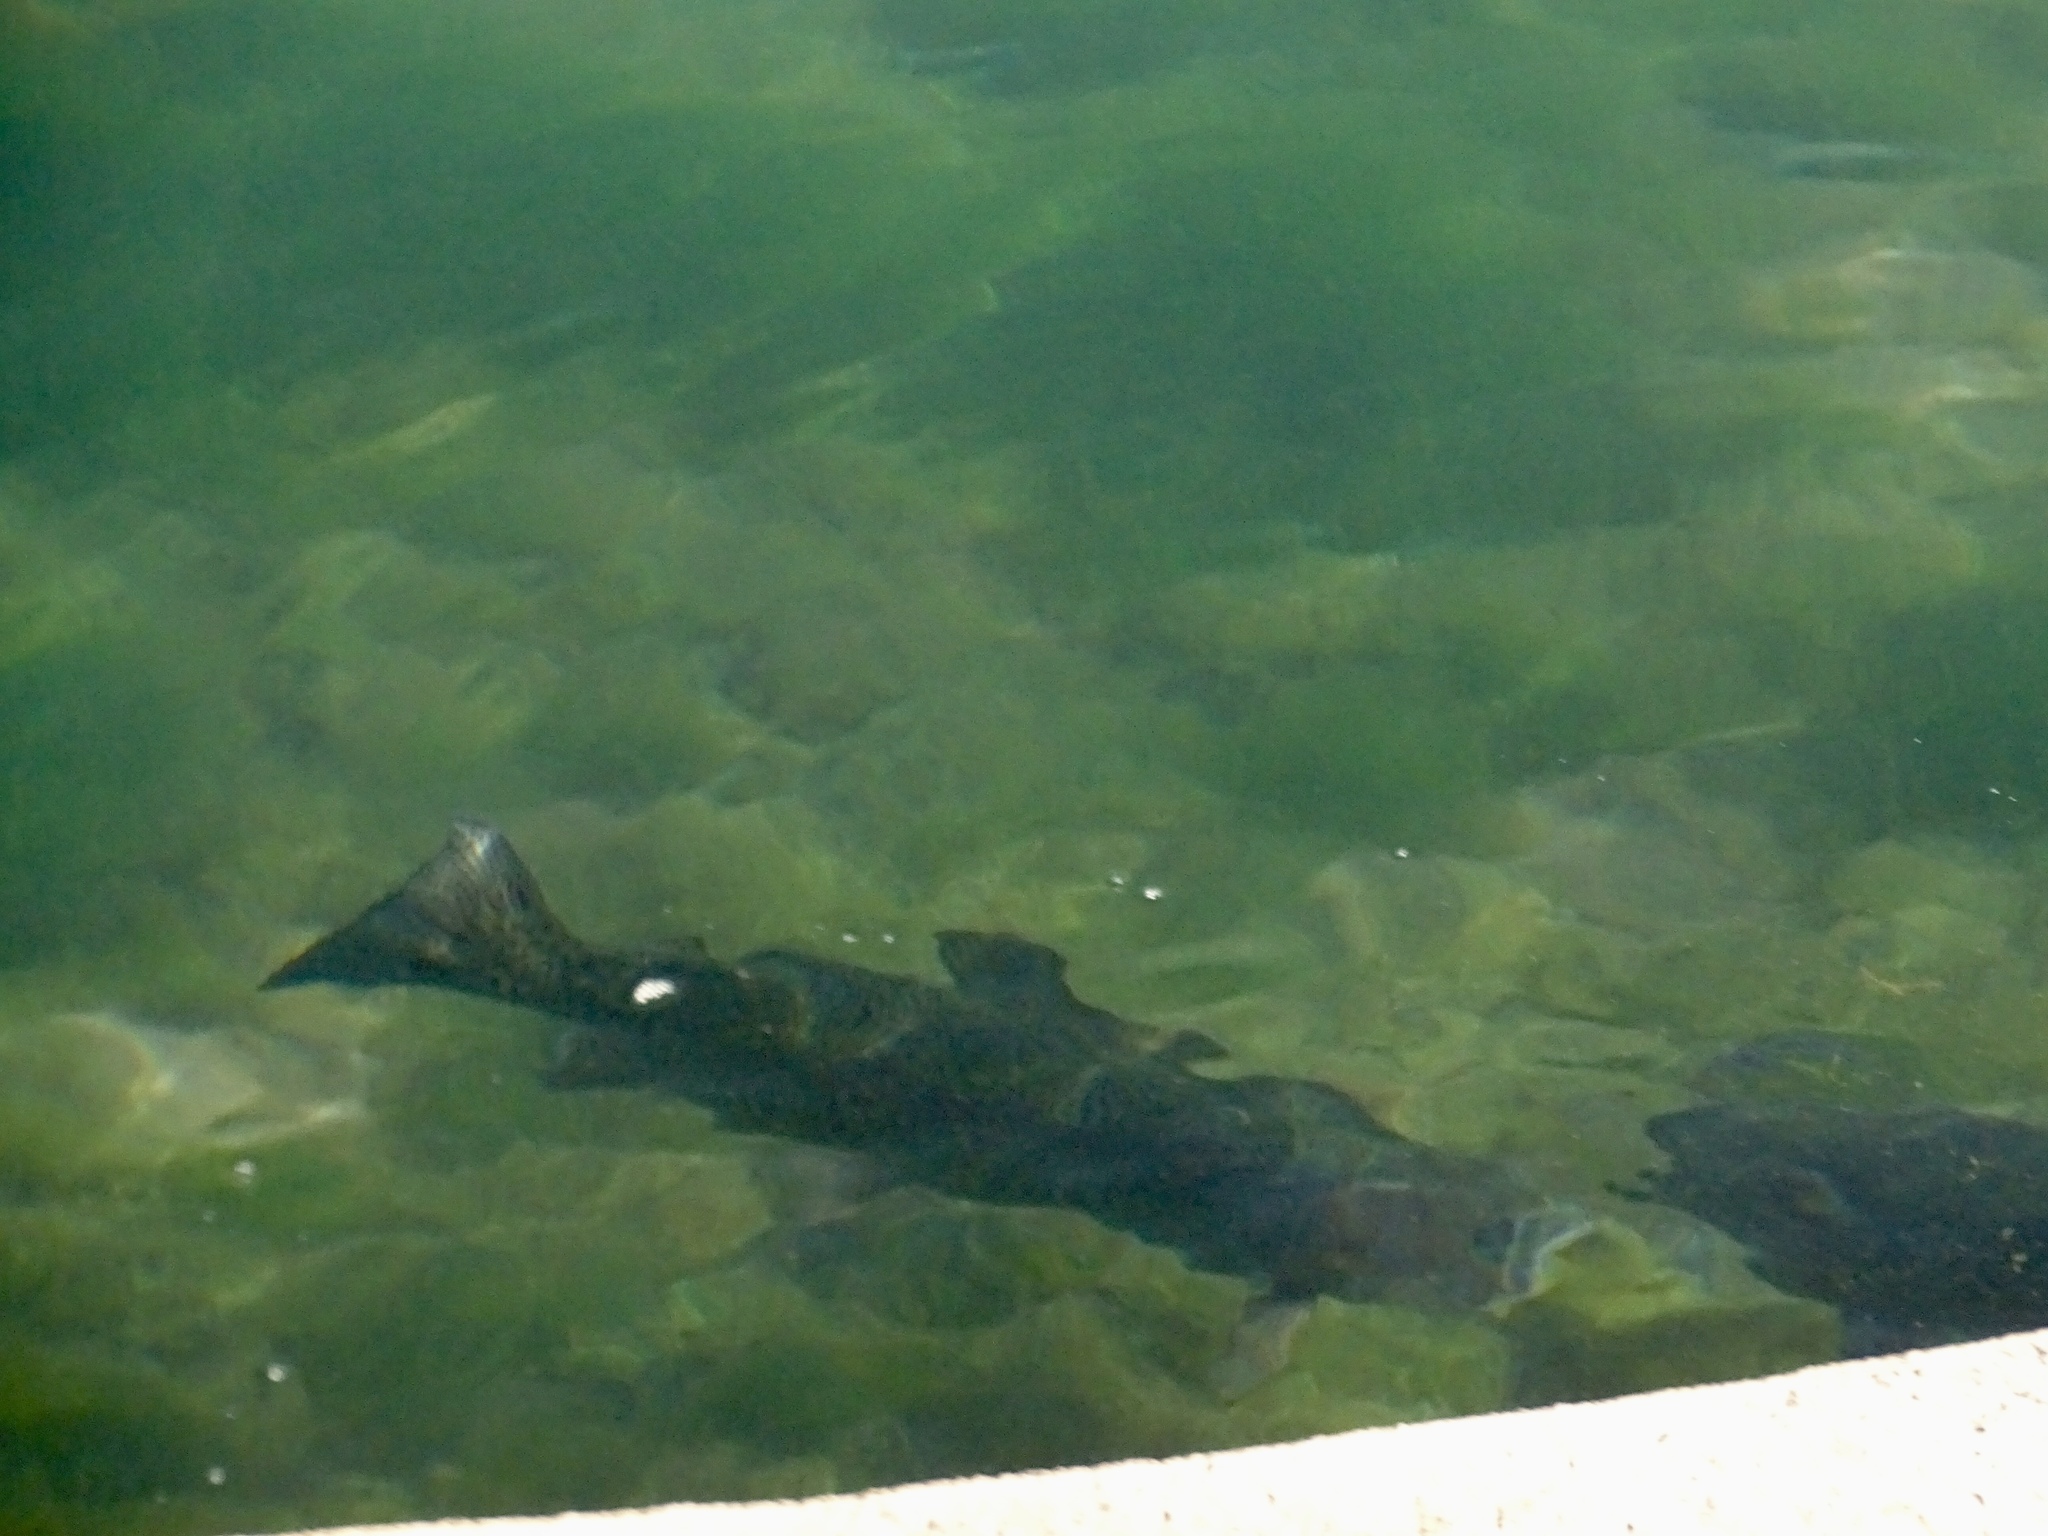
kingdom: Animalia
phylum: Chordata
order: Salmoniformes
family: Salmonidae
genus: Oncorhynchus
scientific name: Oncorhynchus mykiss
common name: Rainbow trout
